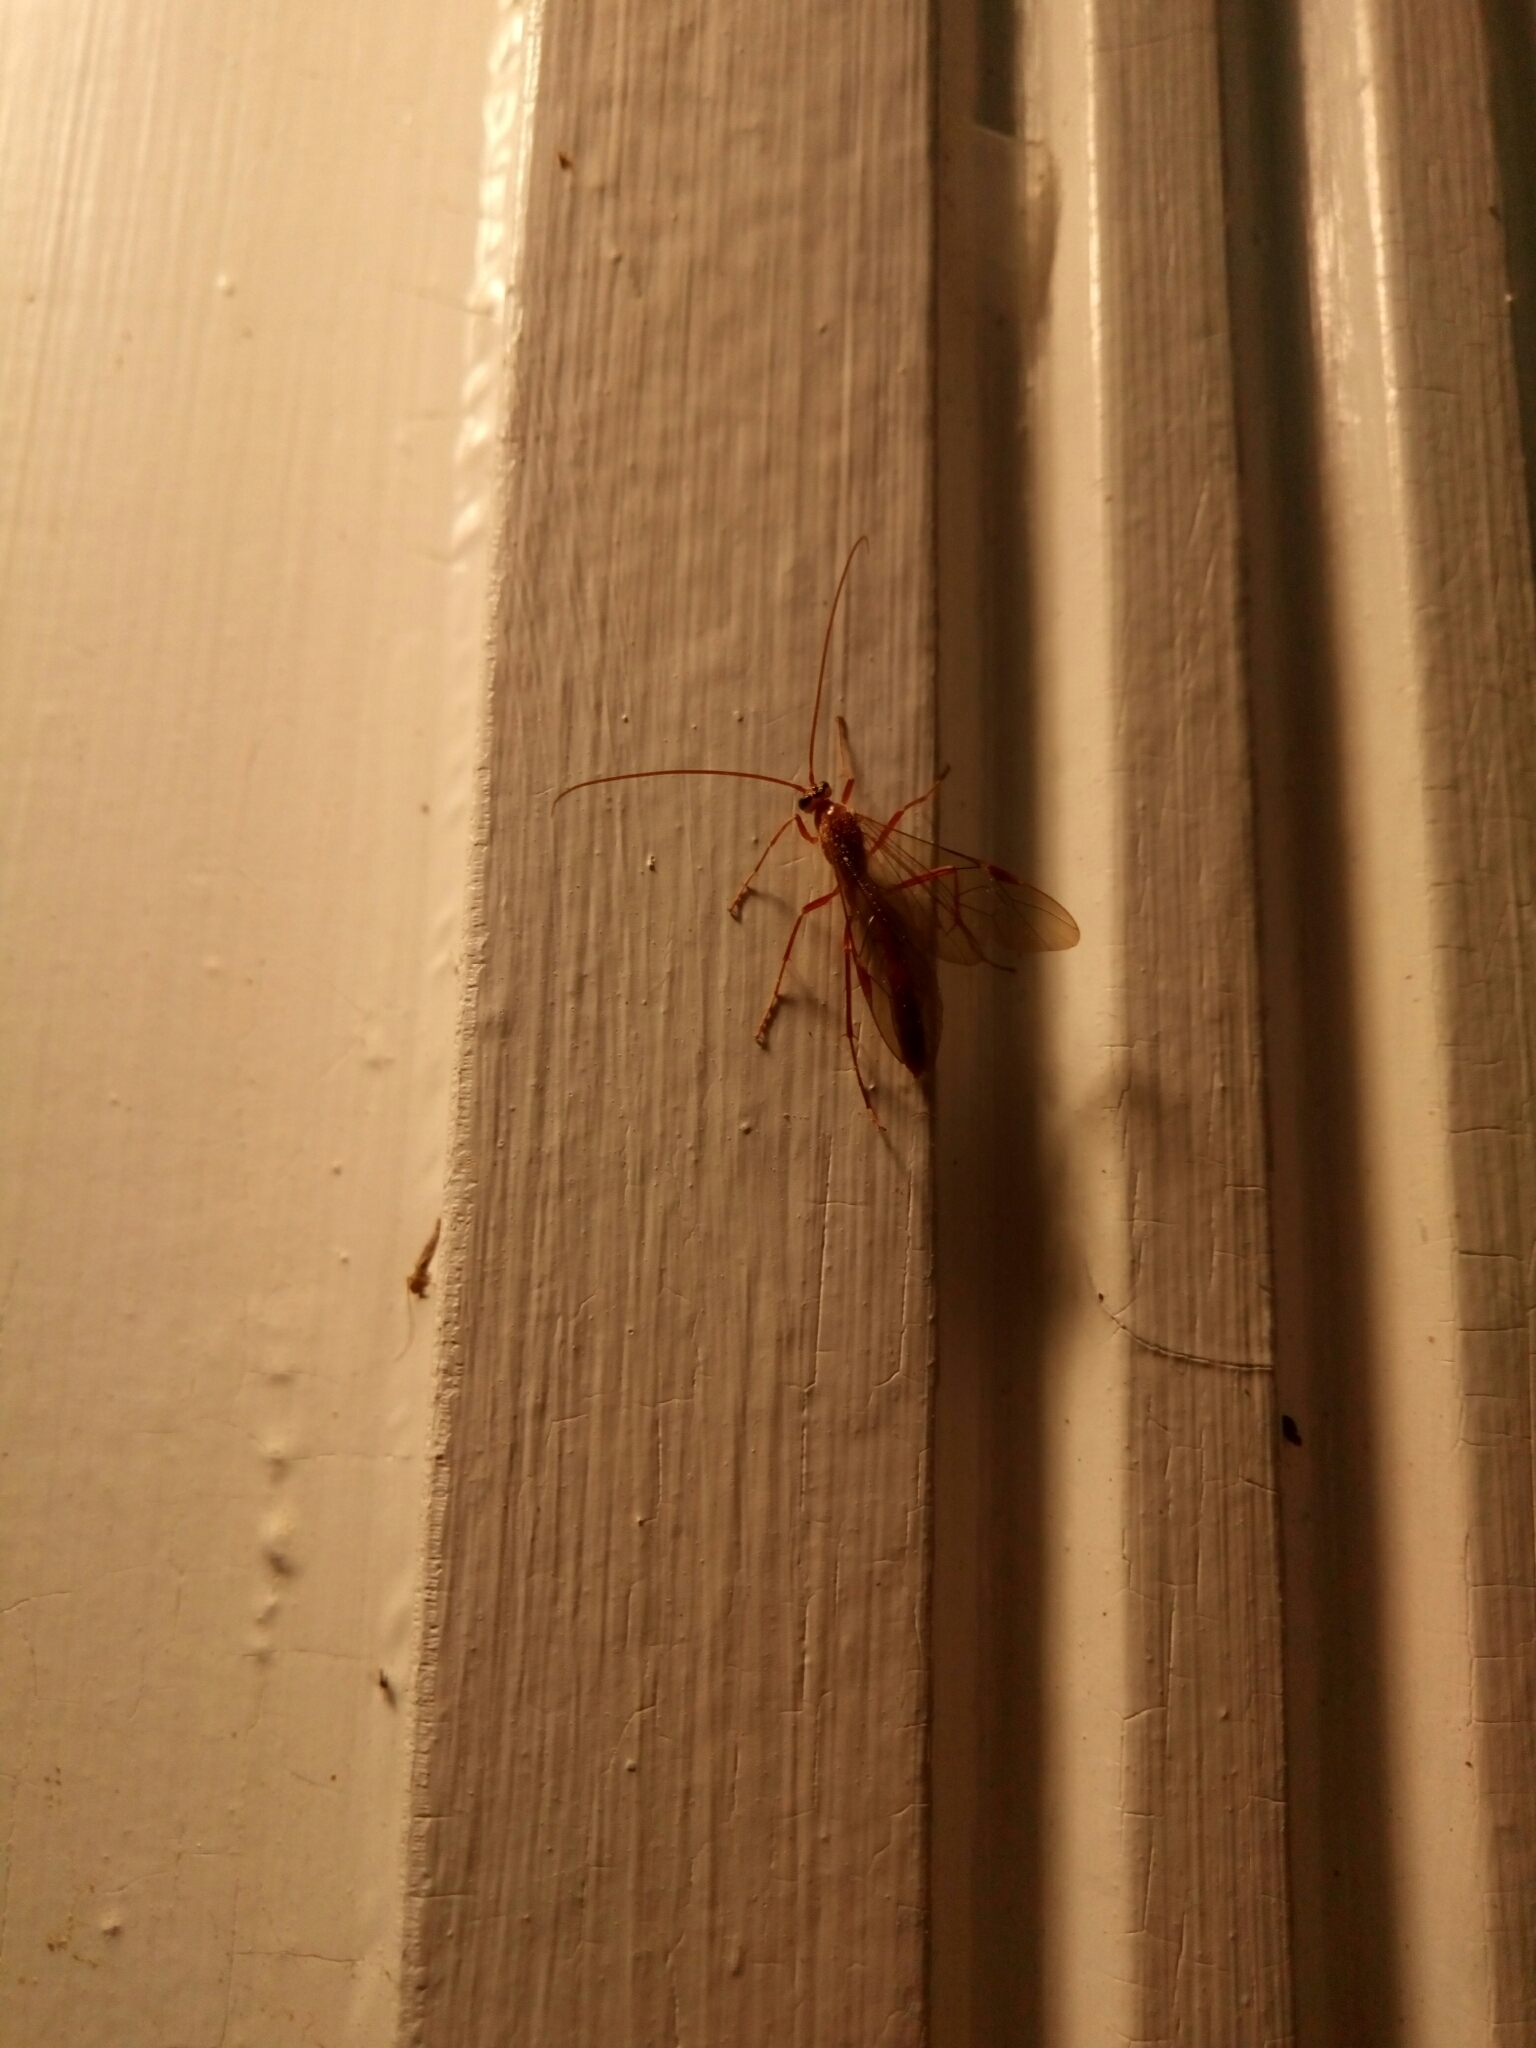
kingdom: Animalia
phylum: Arthropoda
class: Insecta
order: Hymenoptera
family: Ichneumonidae
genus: Ophion
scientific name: Ophion
